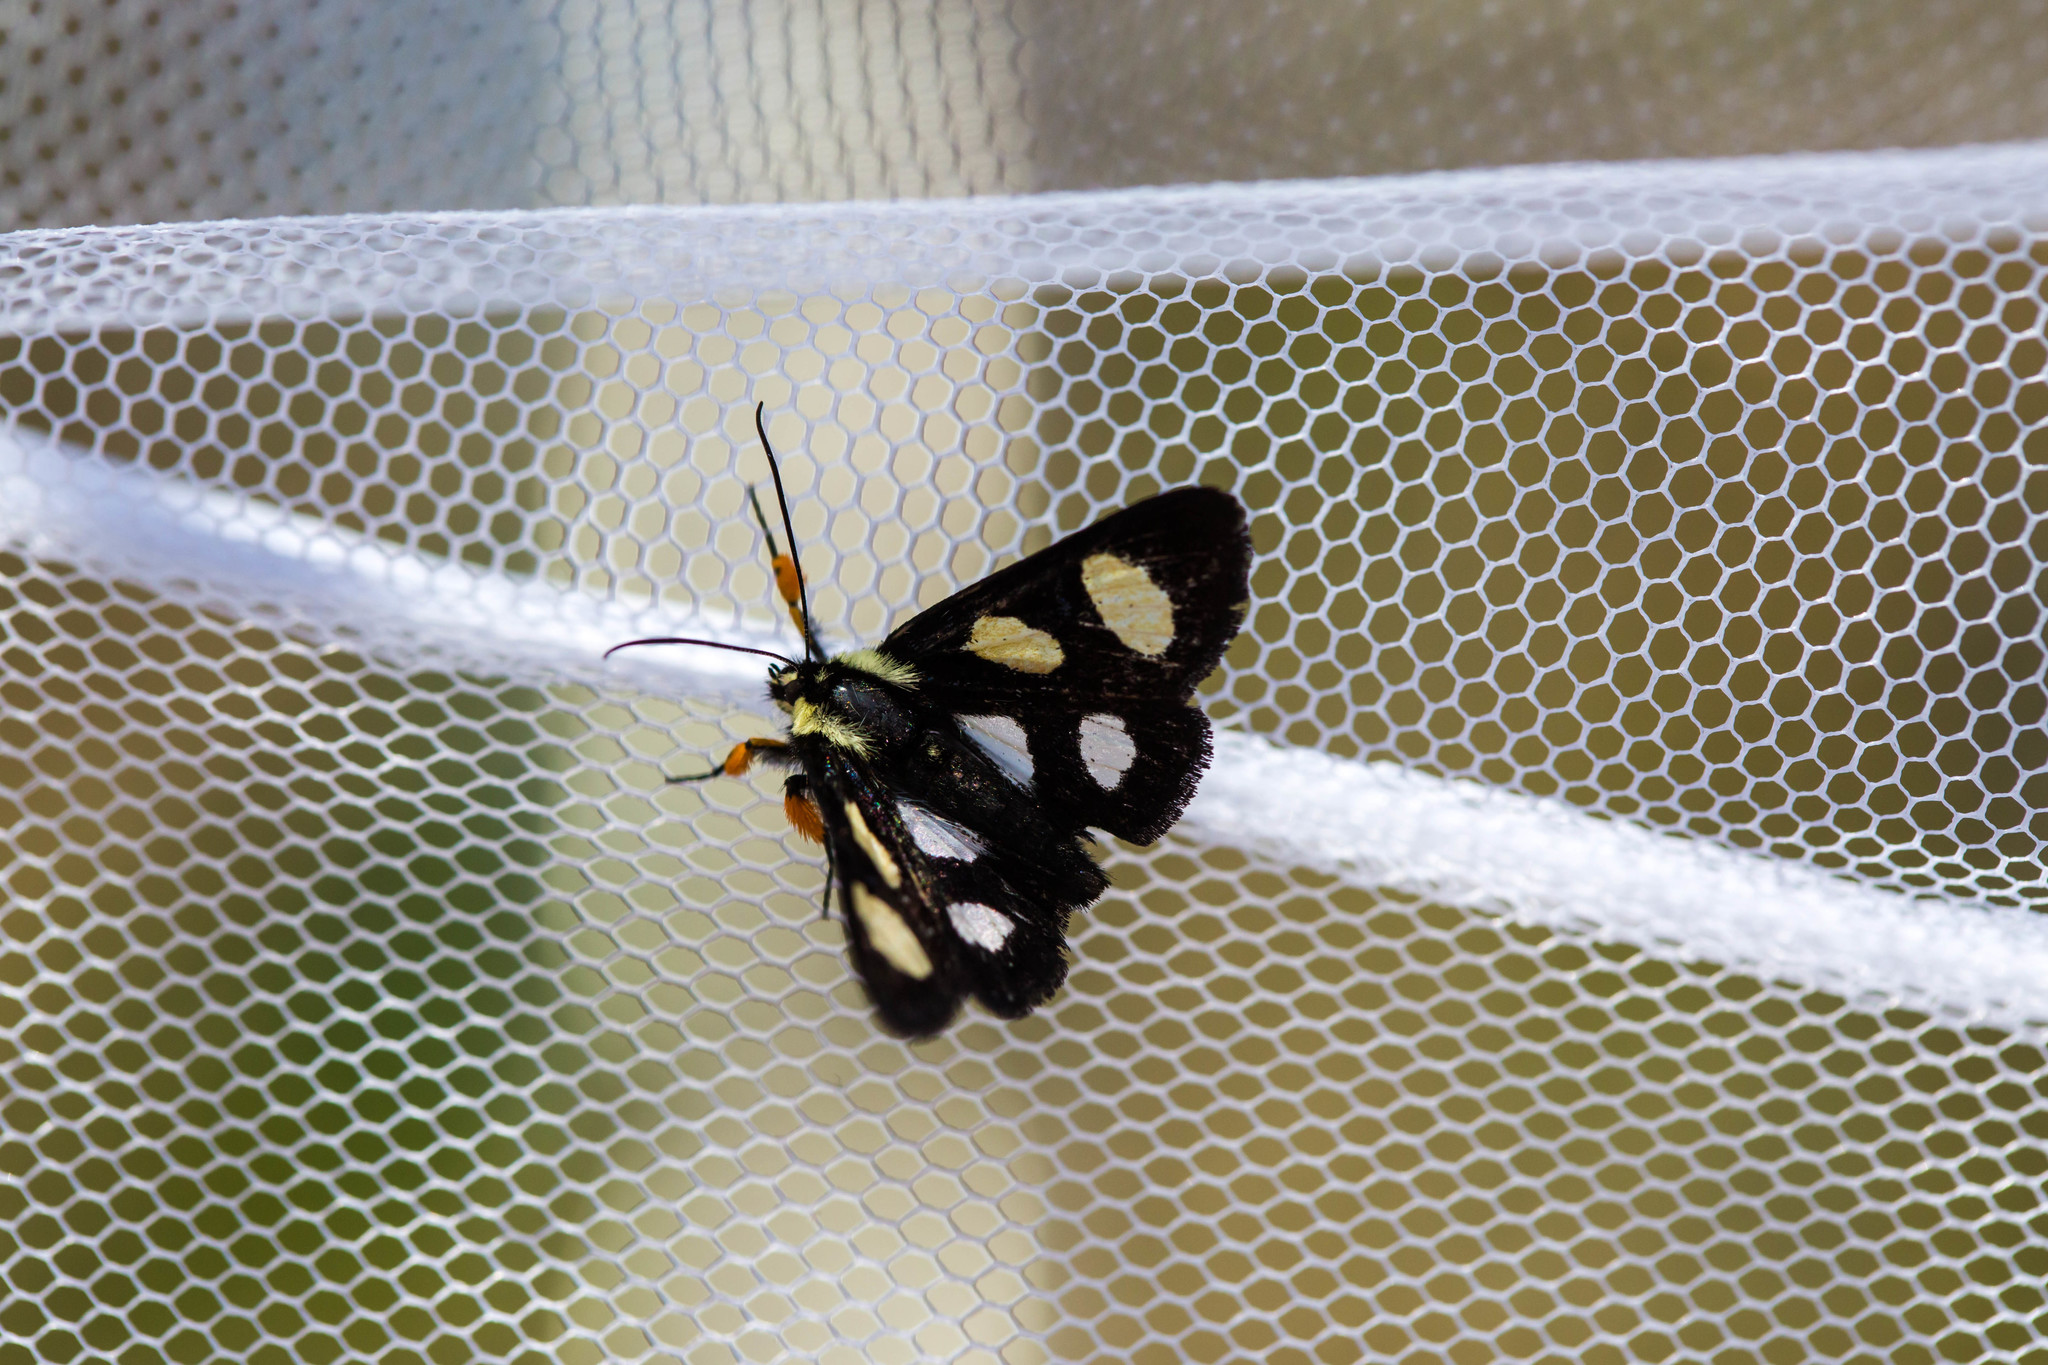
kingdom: Animalia
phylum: Arthropoda
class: Insecta
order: Lepidoptera
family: Noctuidae
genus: Alypia
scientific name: Alypia octomaculata
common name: Eight-spotted forester
